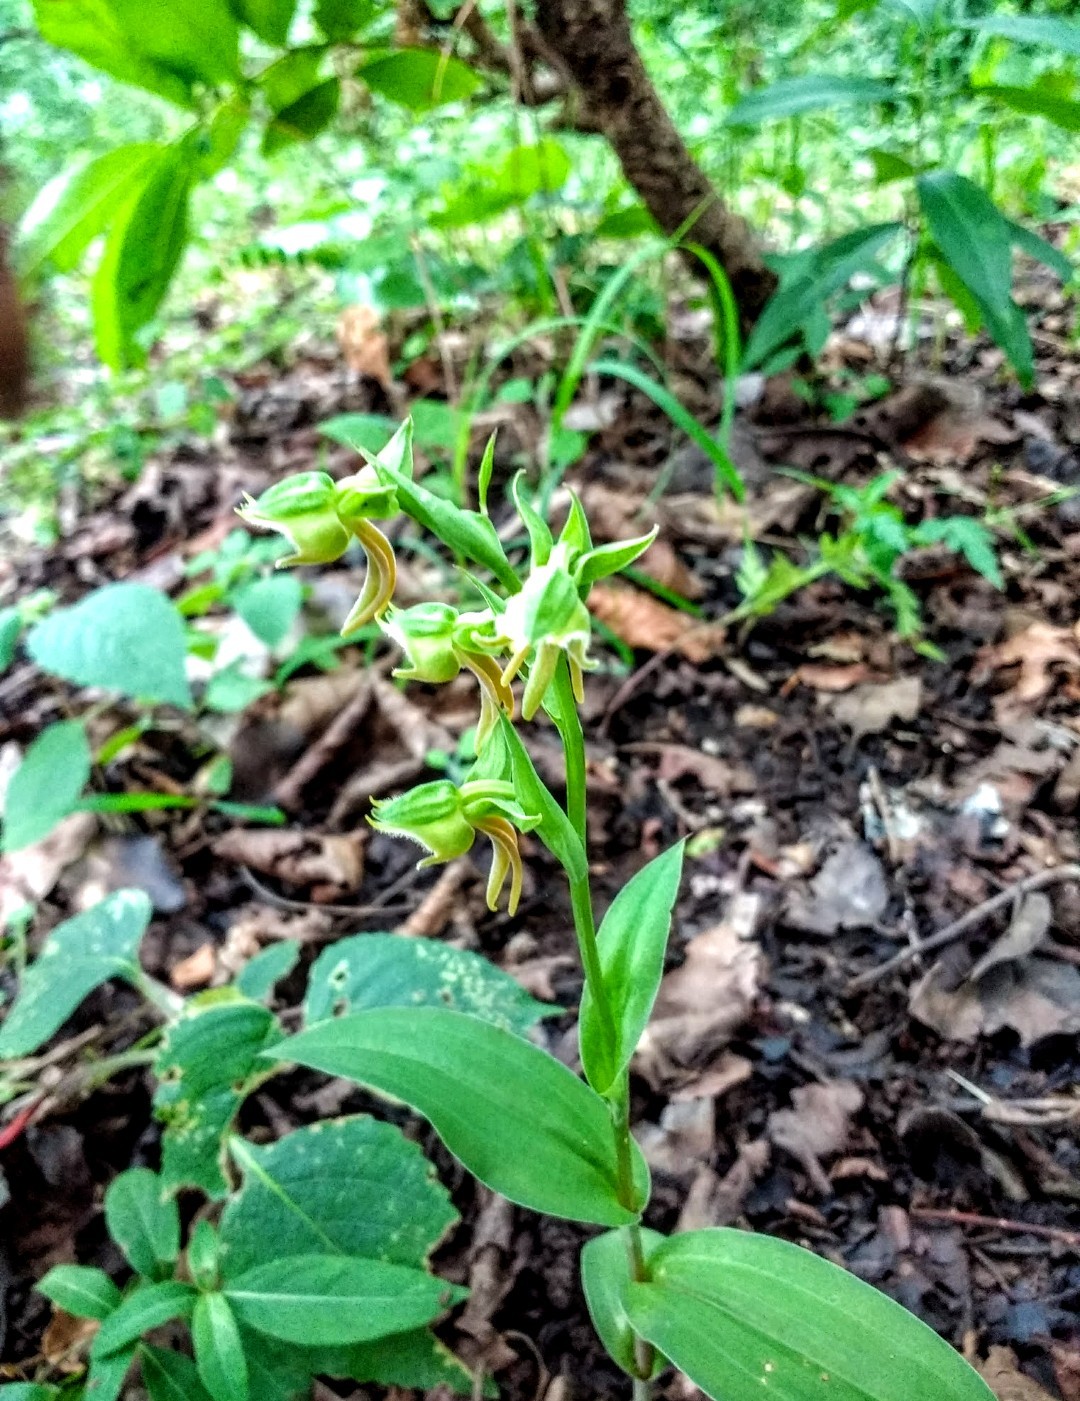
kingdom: Plantae
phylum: Tracheophyta
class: Liliopsida
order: Asparagales
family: Orchidaceae
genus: Habenaria
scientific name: Habenaria barbata
